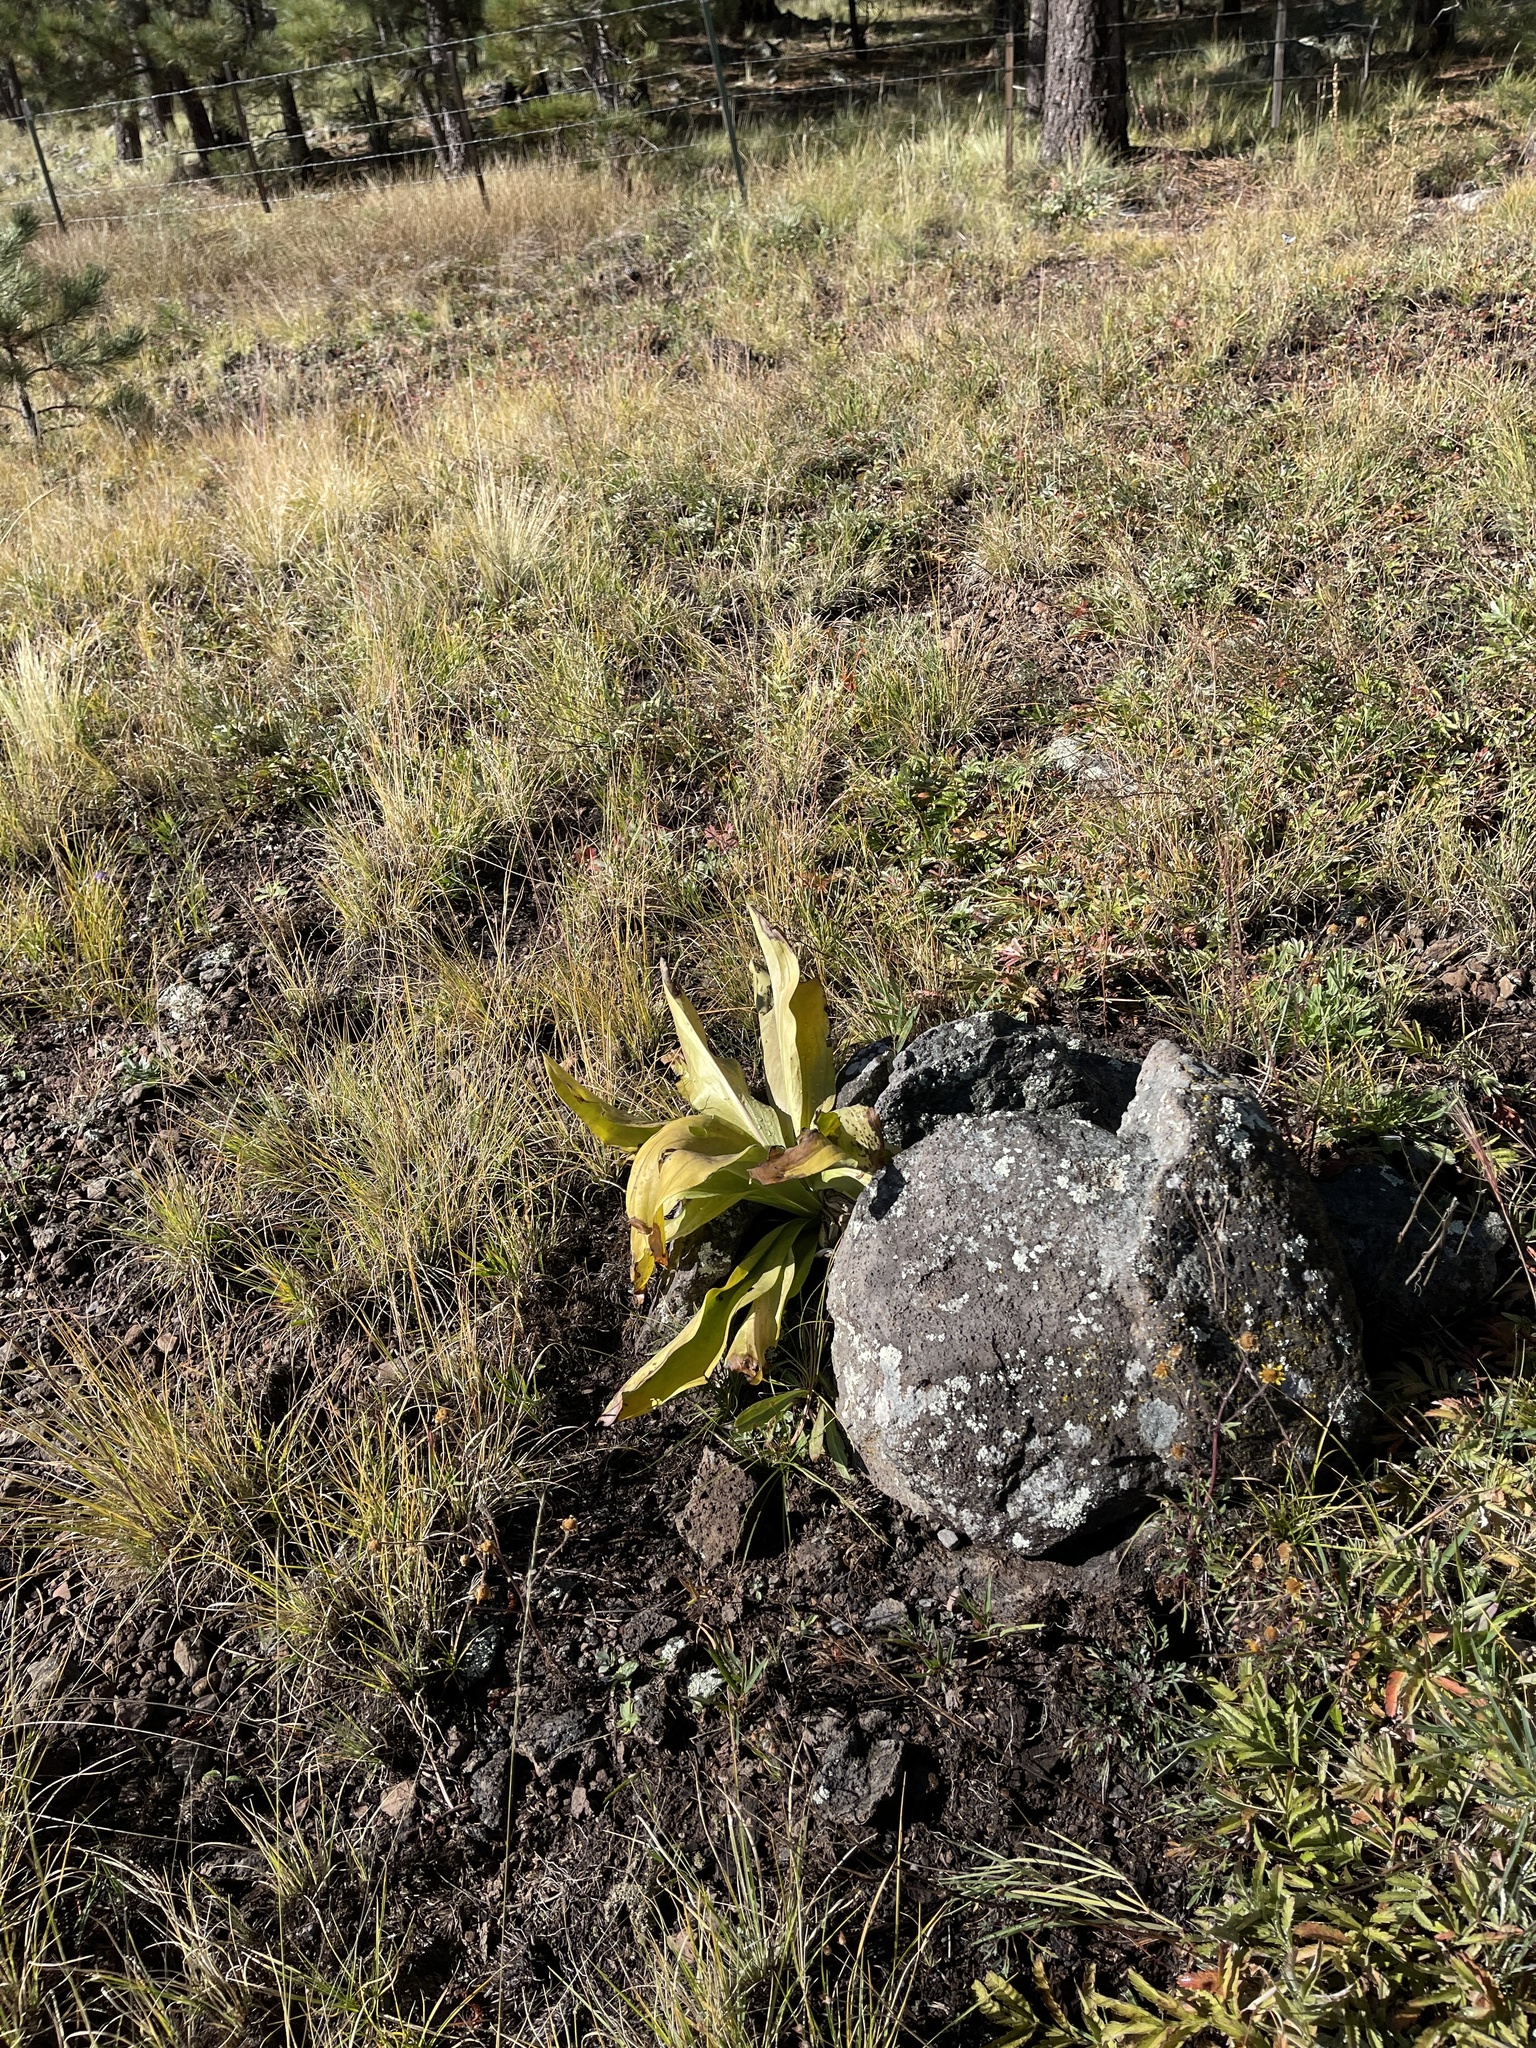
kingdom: Plantae
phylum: Tracheophyta
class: Magnoliopsida
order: Gentianales
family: Gentianaceae
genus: Frasera
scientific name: Frasera speciosa
